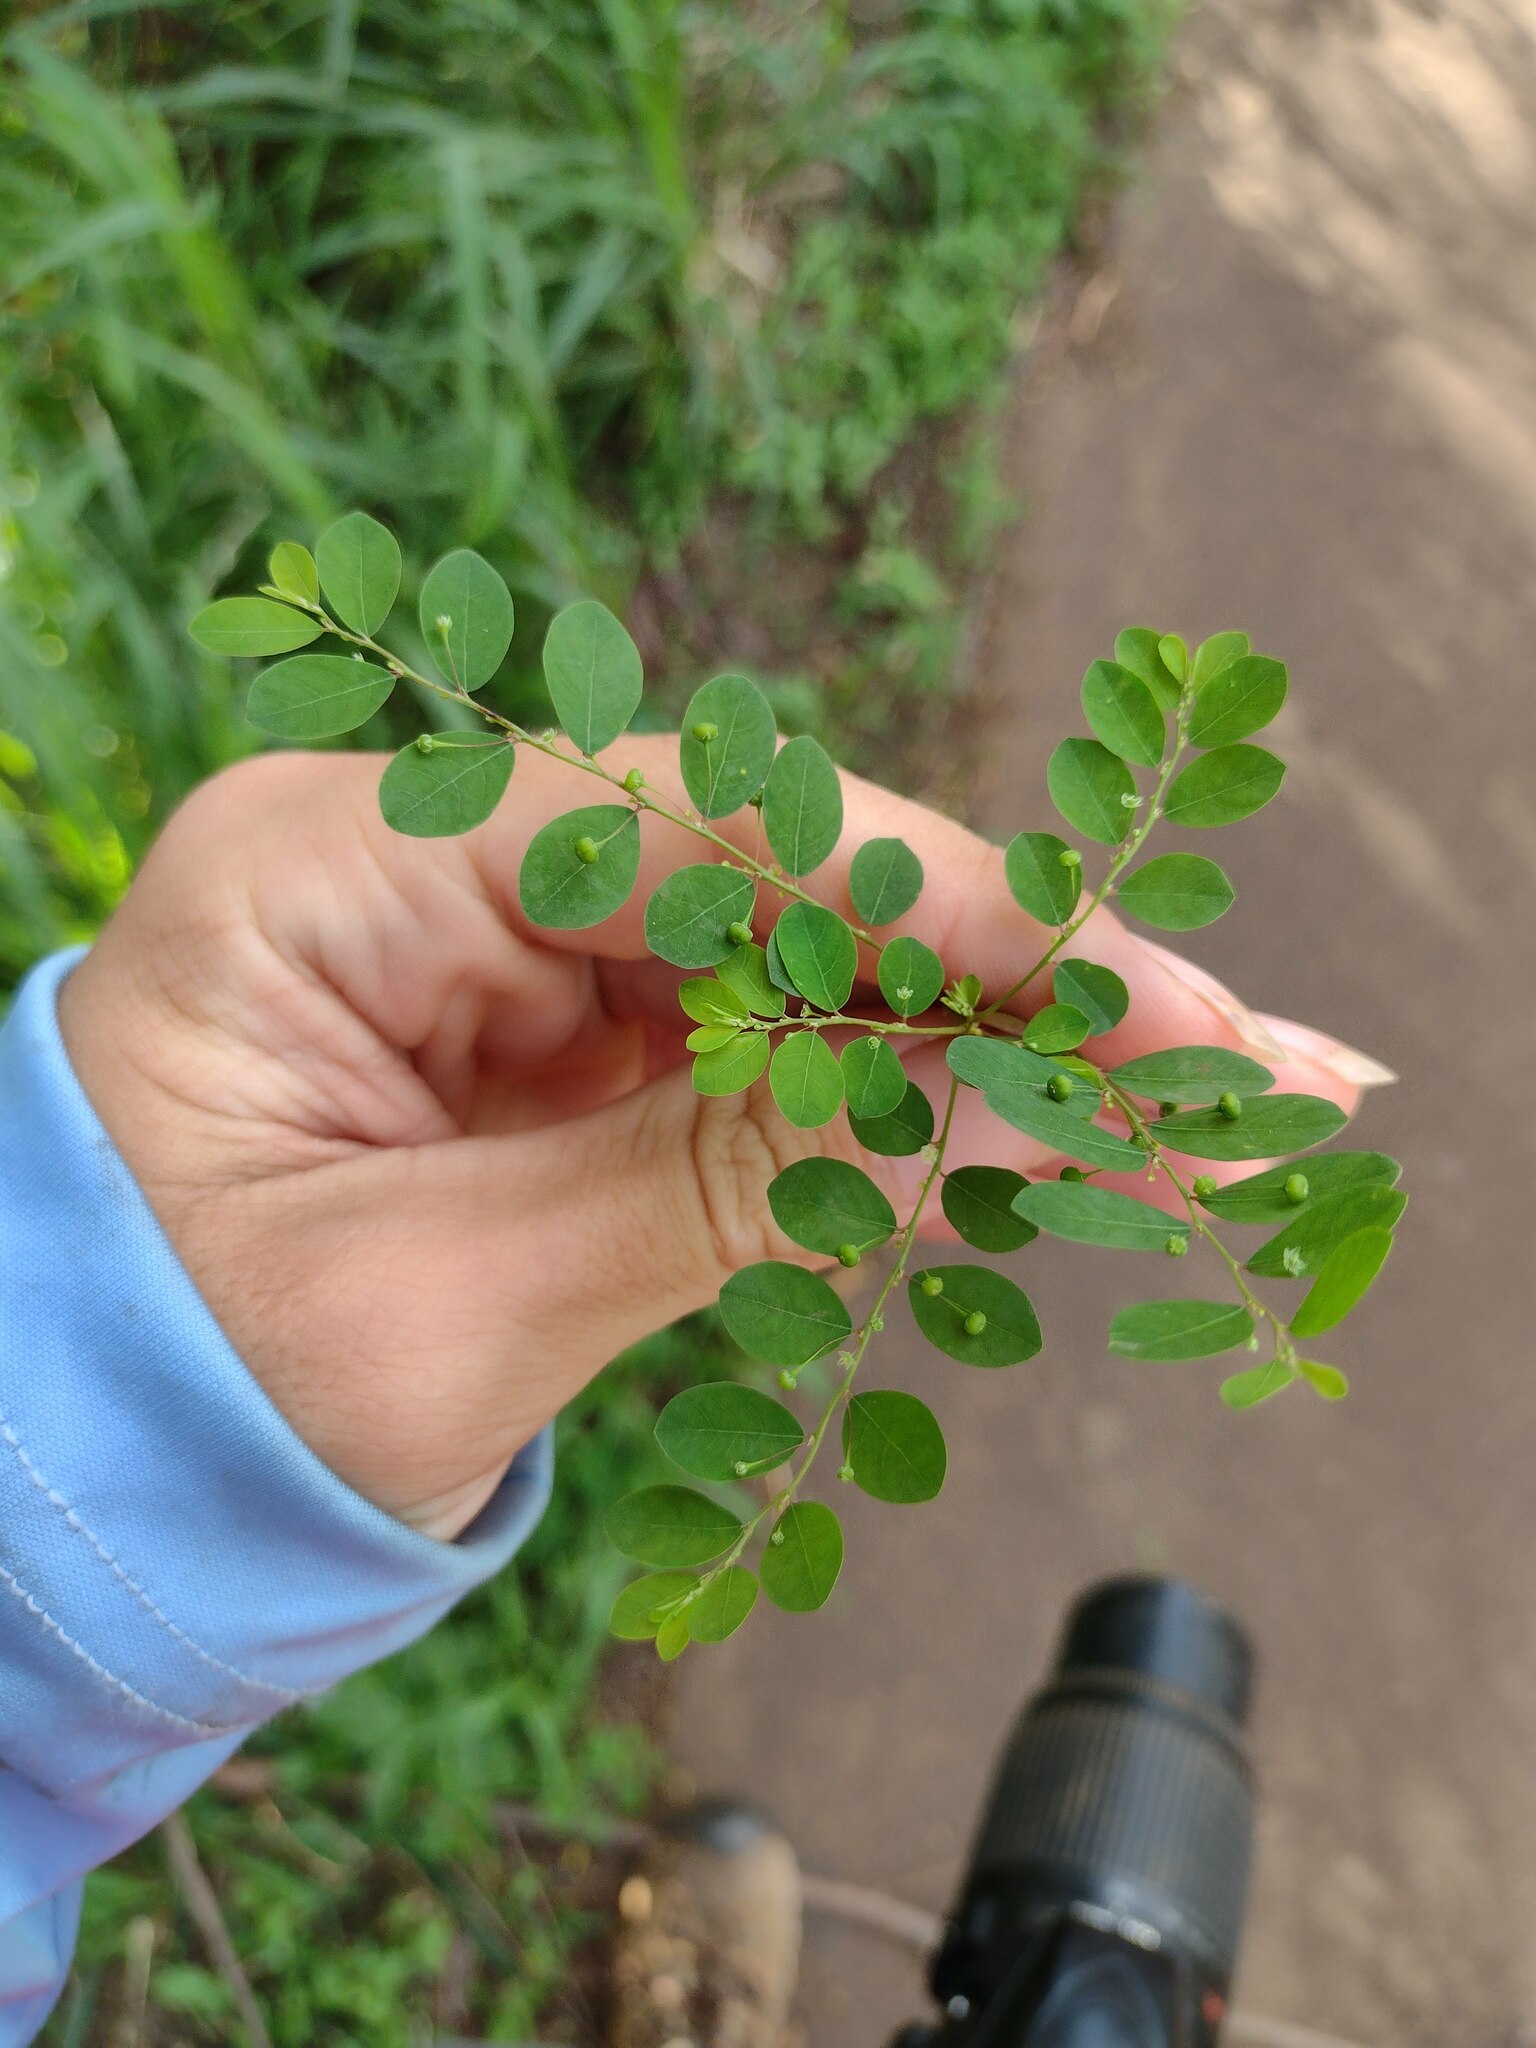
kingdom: Plantae
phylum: Tracheophyta
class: Magnoliopsida
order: Malpighiales
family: Phyllanthaceae
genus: Phyllanthus
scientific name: Phyllanthus tenellus
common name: Mascarene island leaf-flower
